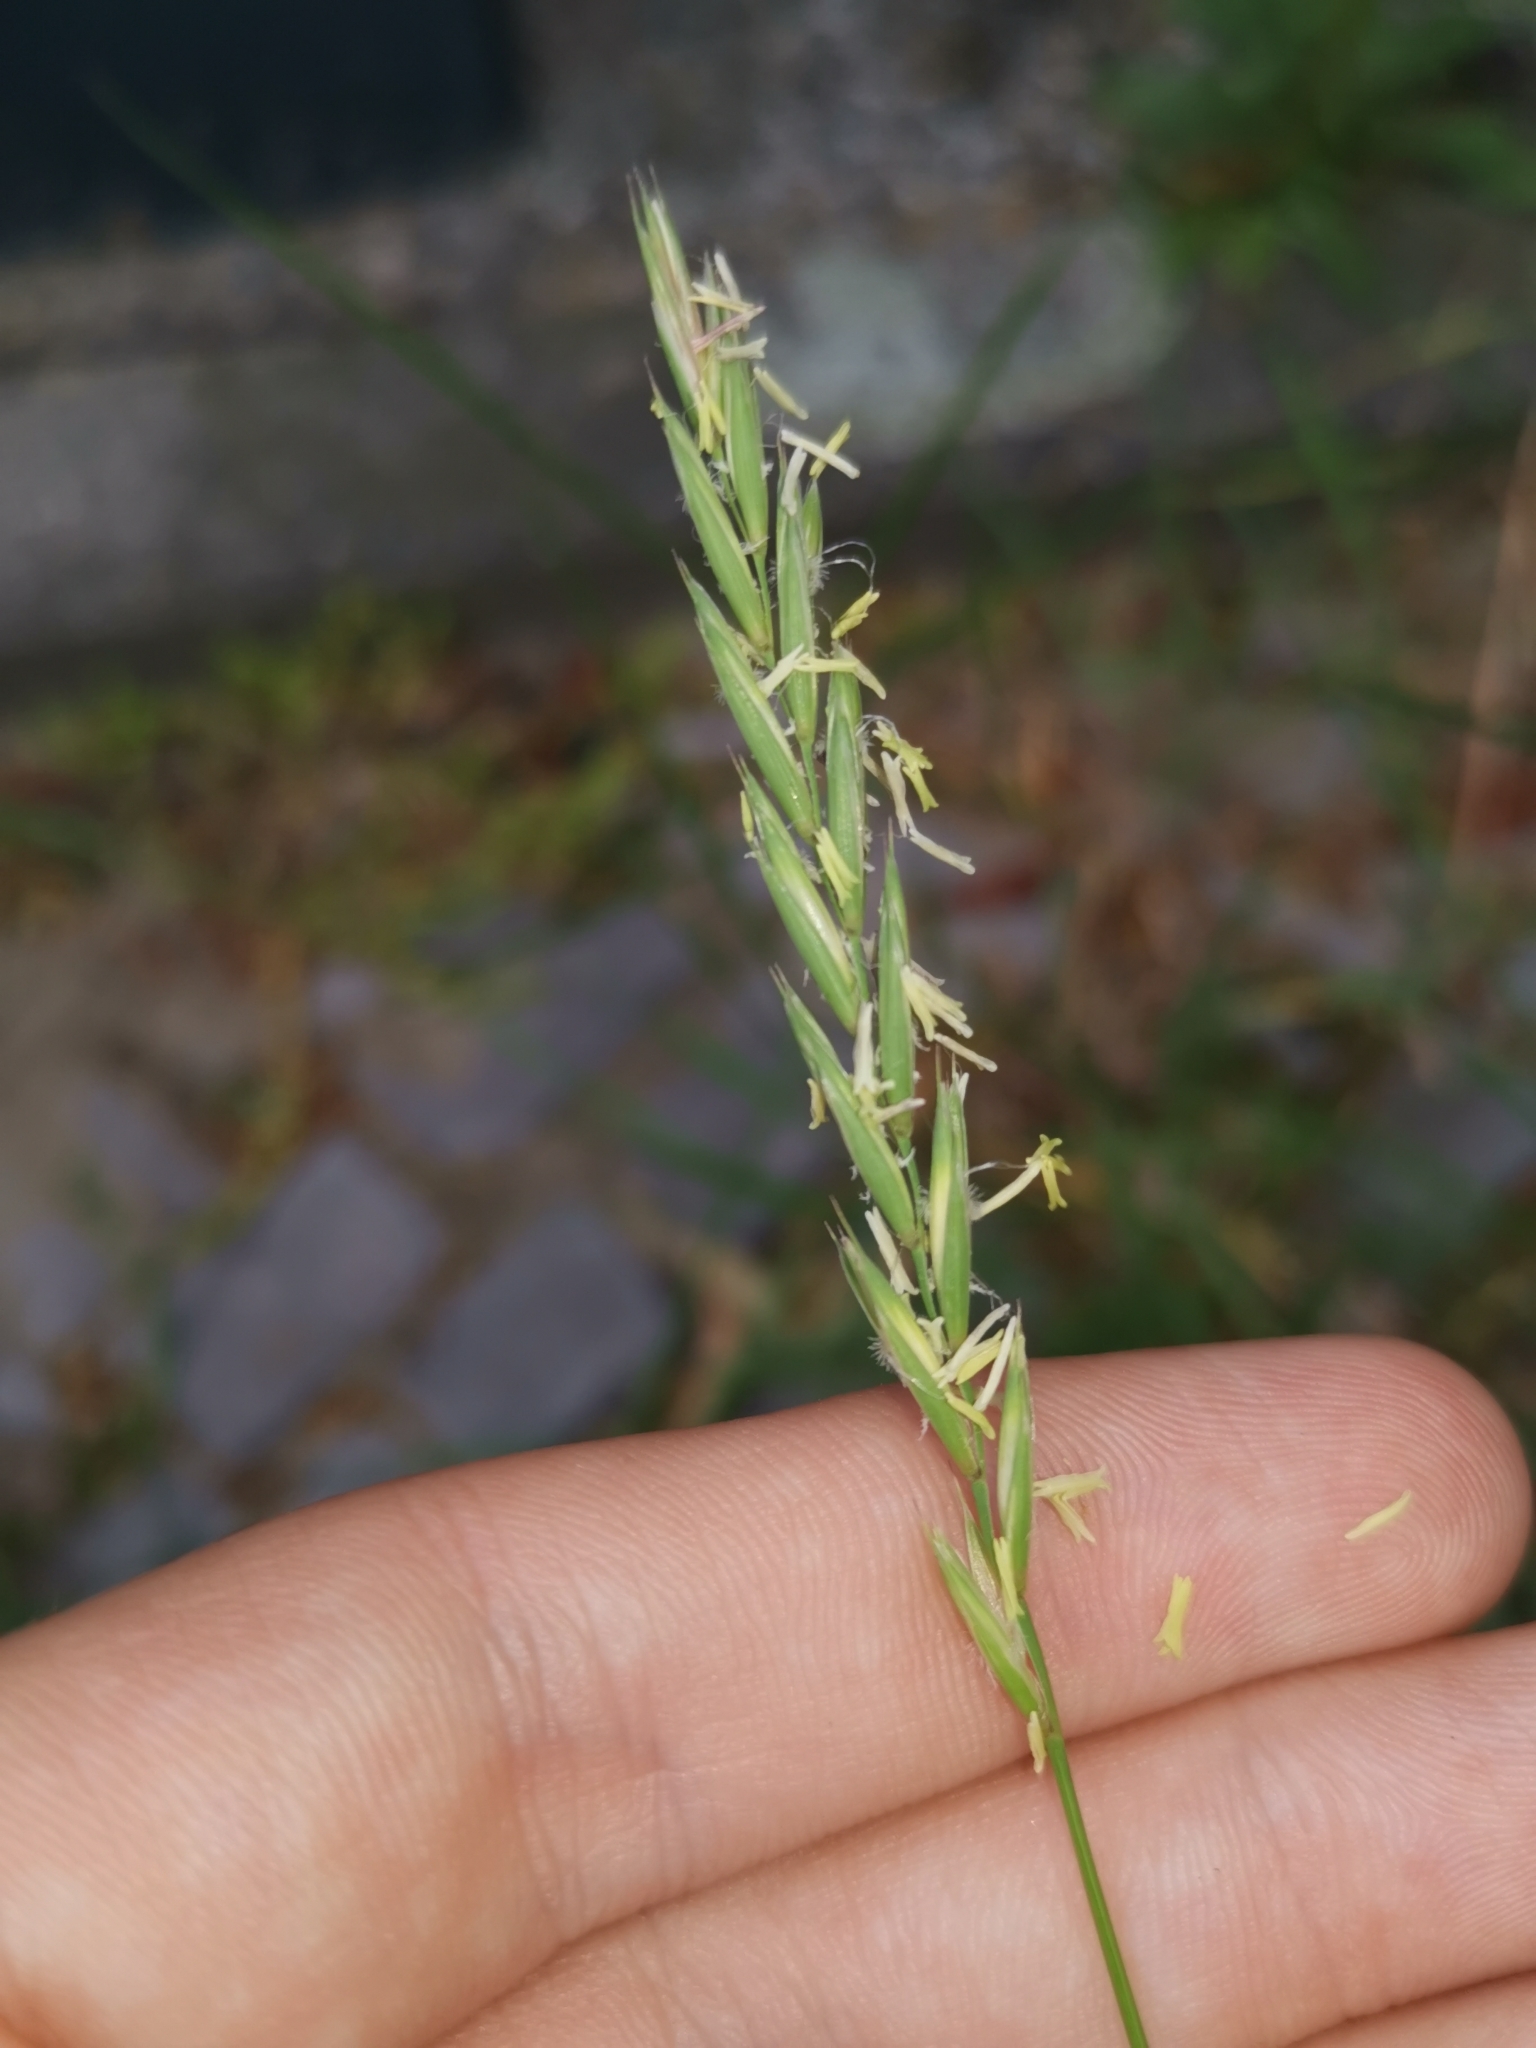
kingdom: Plantae
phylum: Tracheophyta
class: Liliopsida
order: Poales
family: Poaceae
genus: Elymus
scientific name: Elymus repens
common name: Quackgrass
